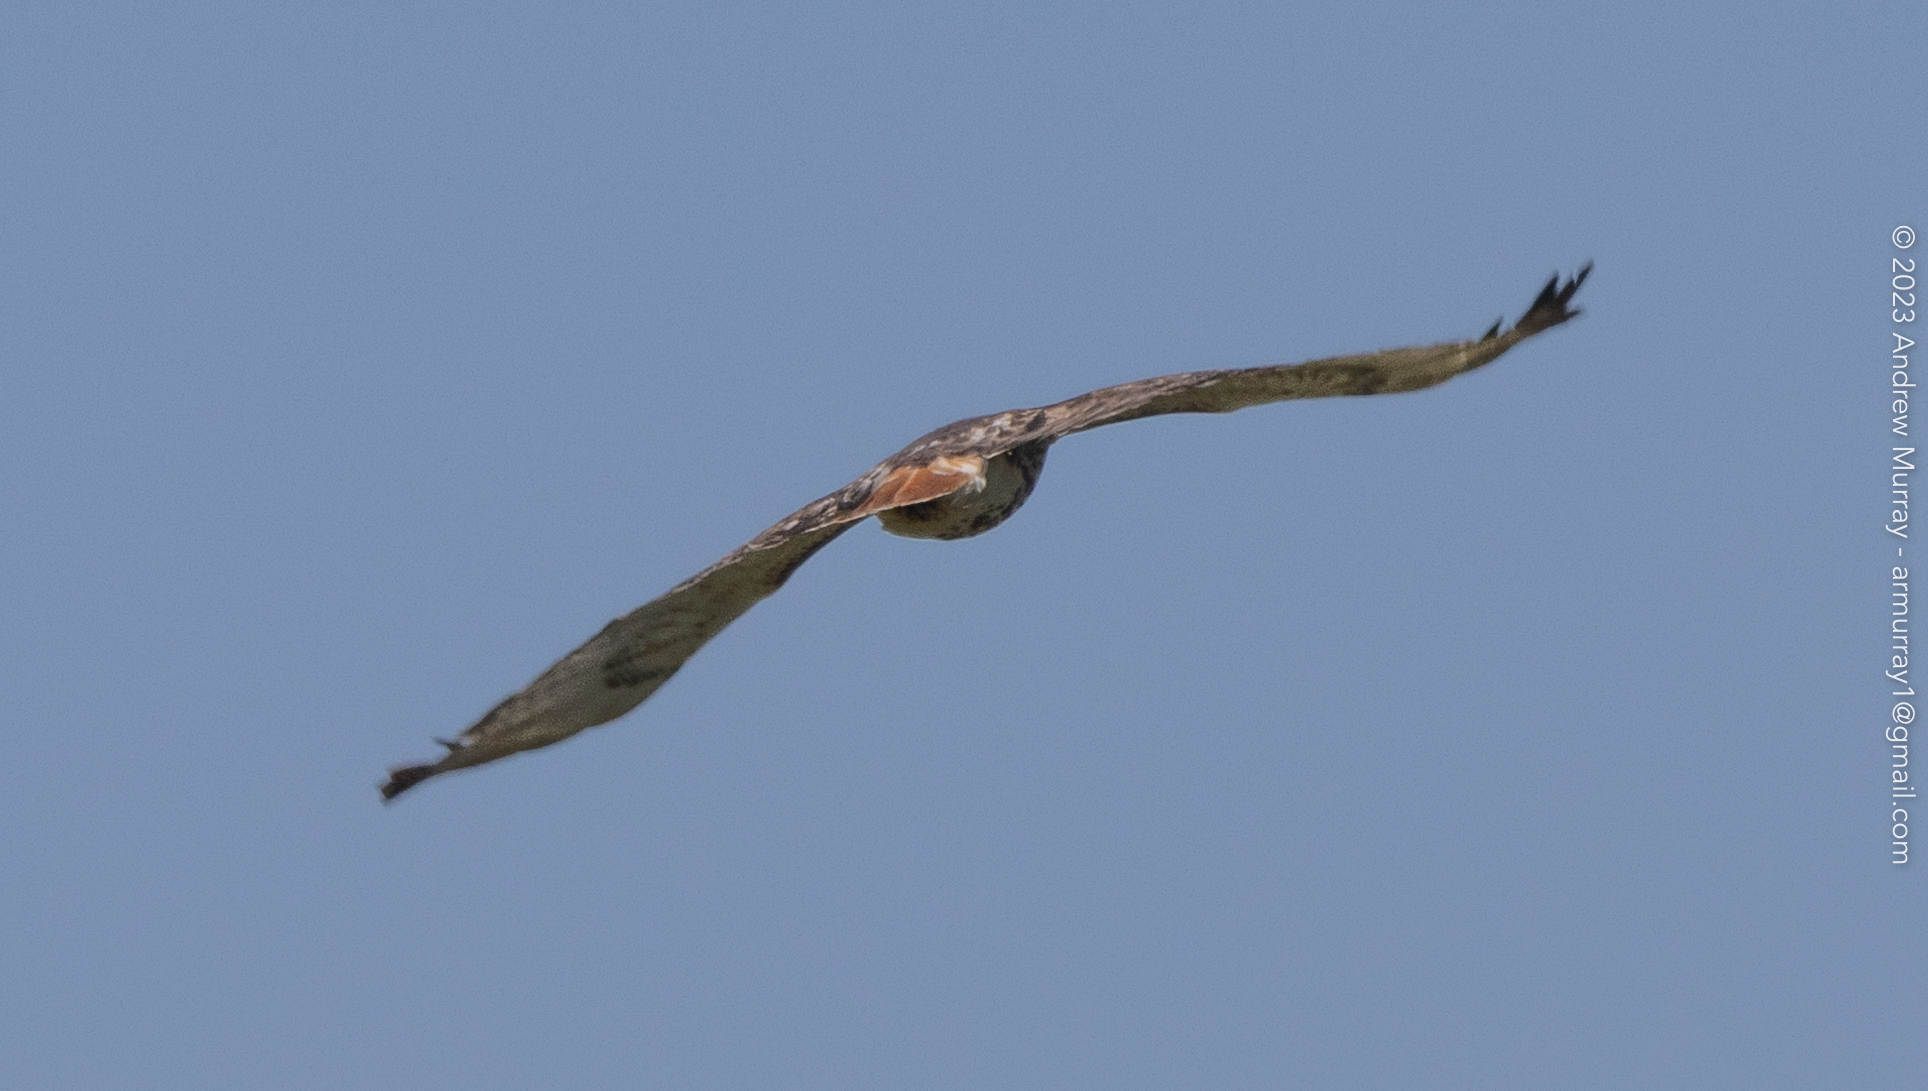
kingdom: Animalia
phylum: Chordata
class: Aves
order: Accipitriformes
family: Accipitridae
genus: Buteo
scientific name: Buteo jamaicensis
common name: Red-tailed hawk
